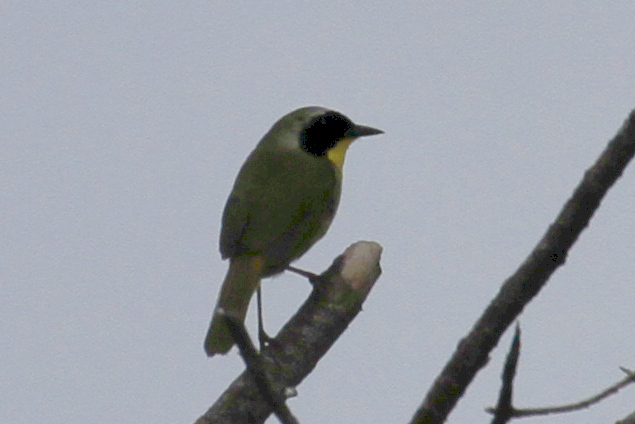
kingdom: Animalia
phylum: Chordata
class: Aves
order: Passeriformes
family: Parulidae
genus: Geothlypis
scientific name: Geothlypis trichas
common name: Common yellowthroat
